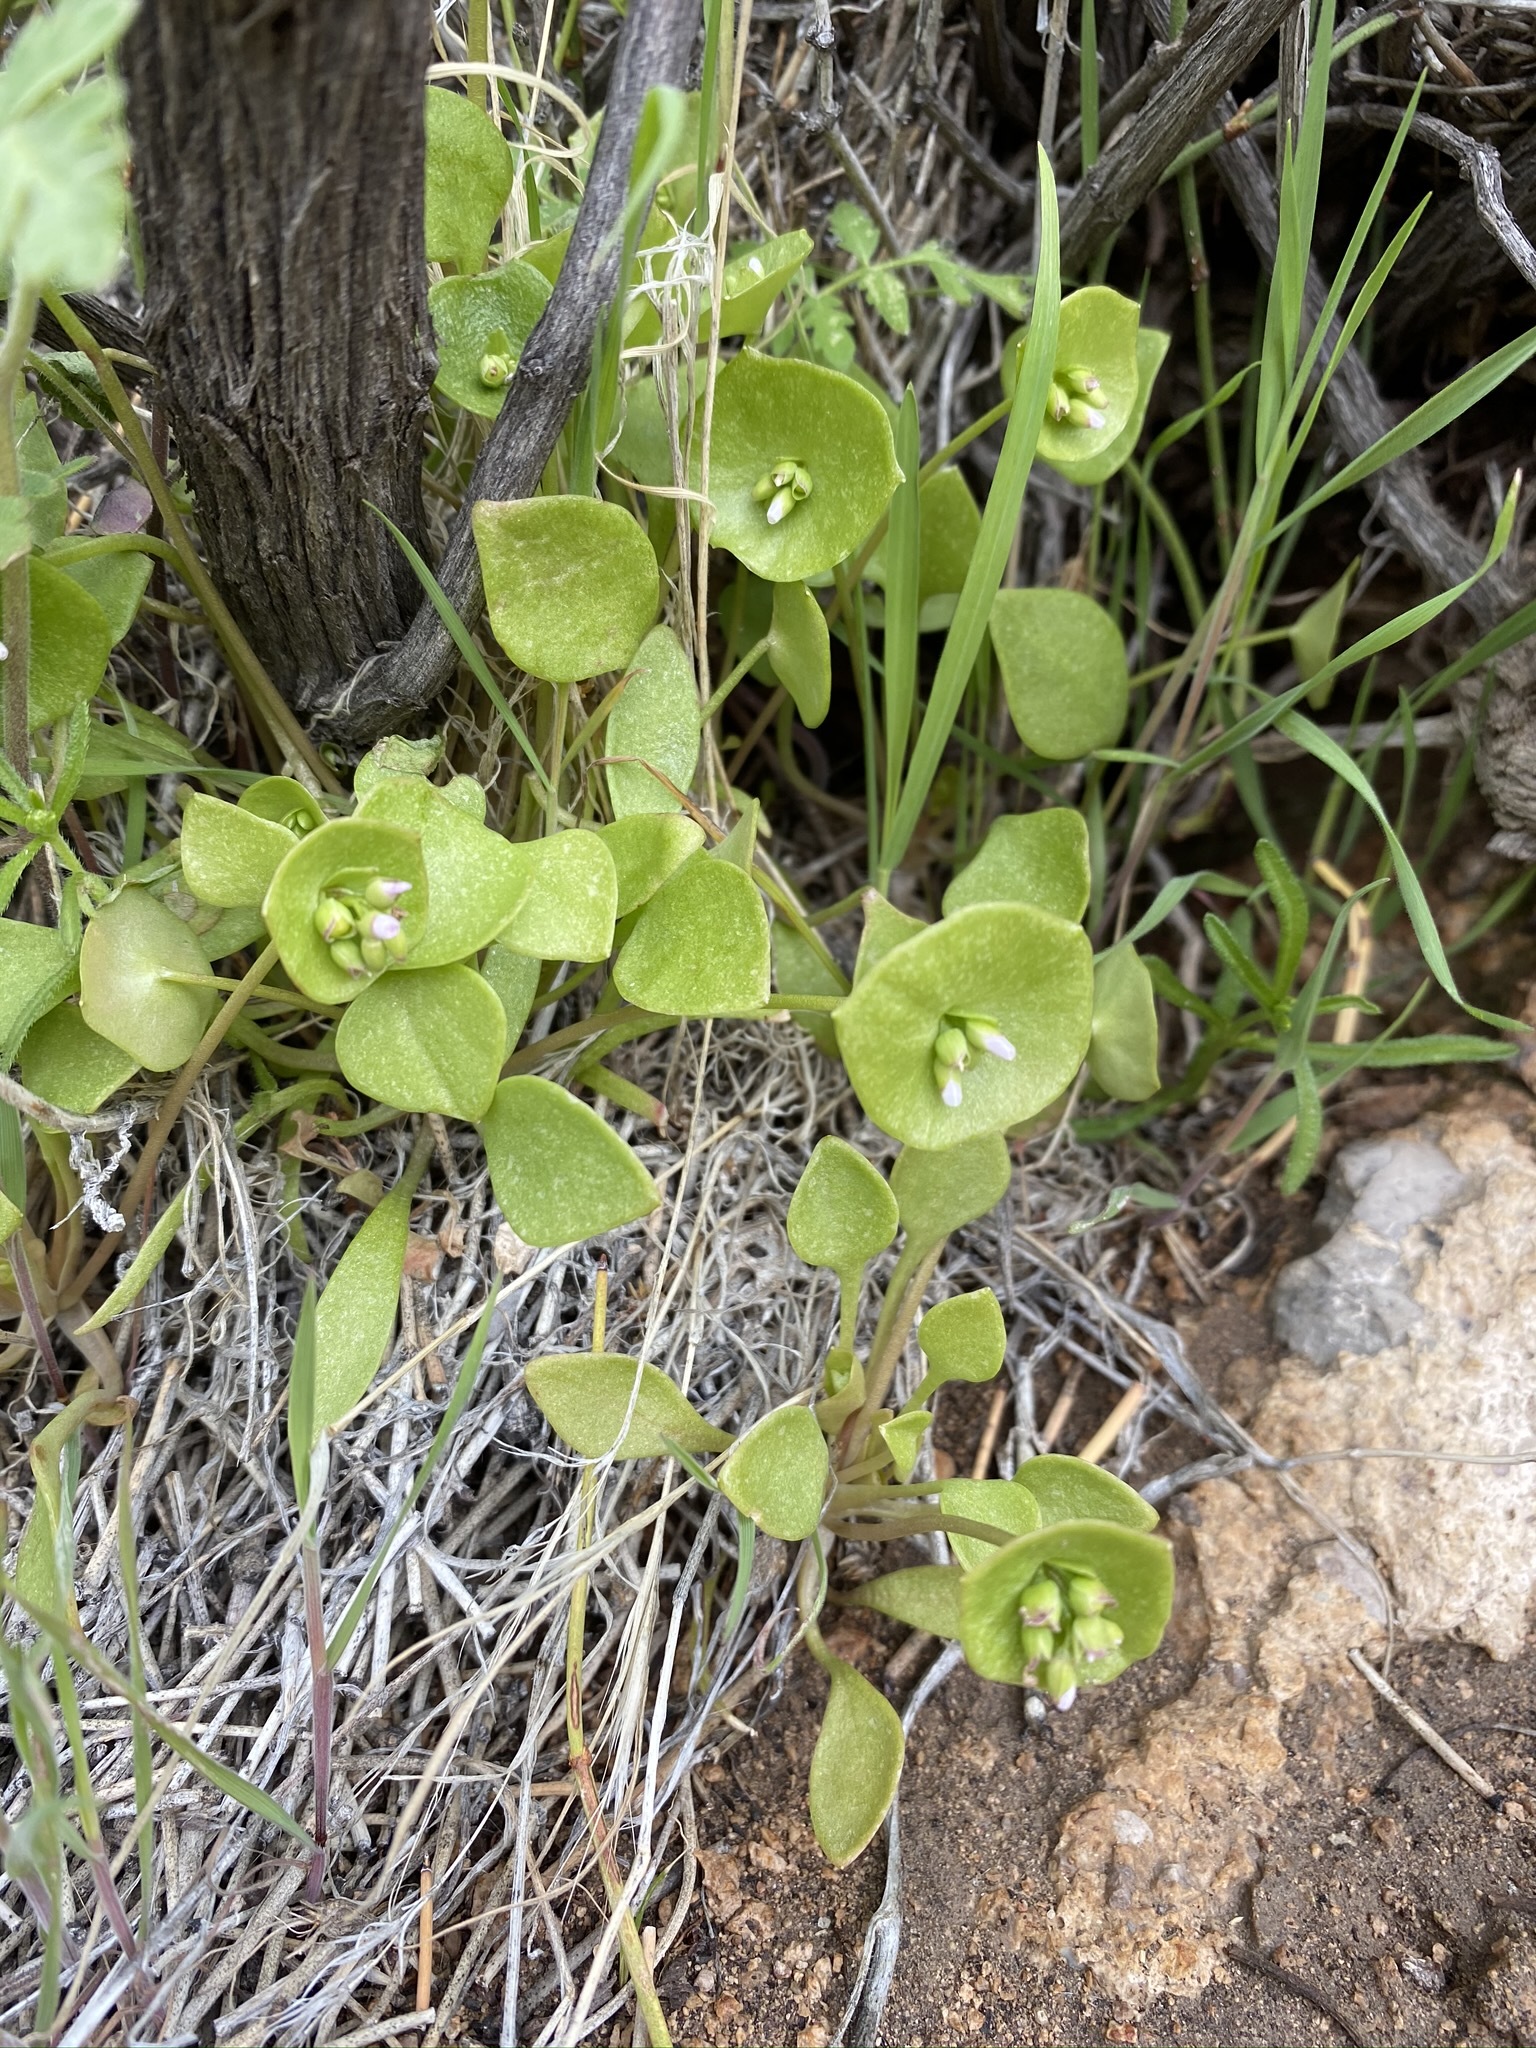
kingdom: Plantae
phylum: Tracheophyta
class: Magnoliopsida
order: Caryophyllales
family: Montiaceae
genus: Claytonia
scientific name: Claytonia perfoliata
